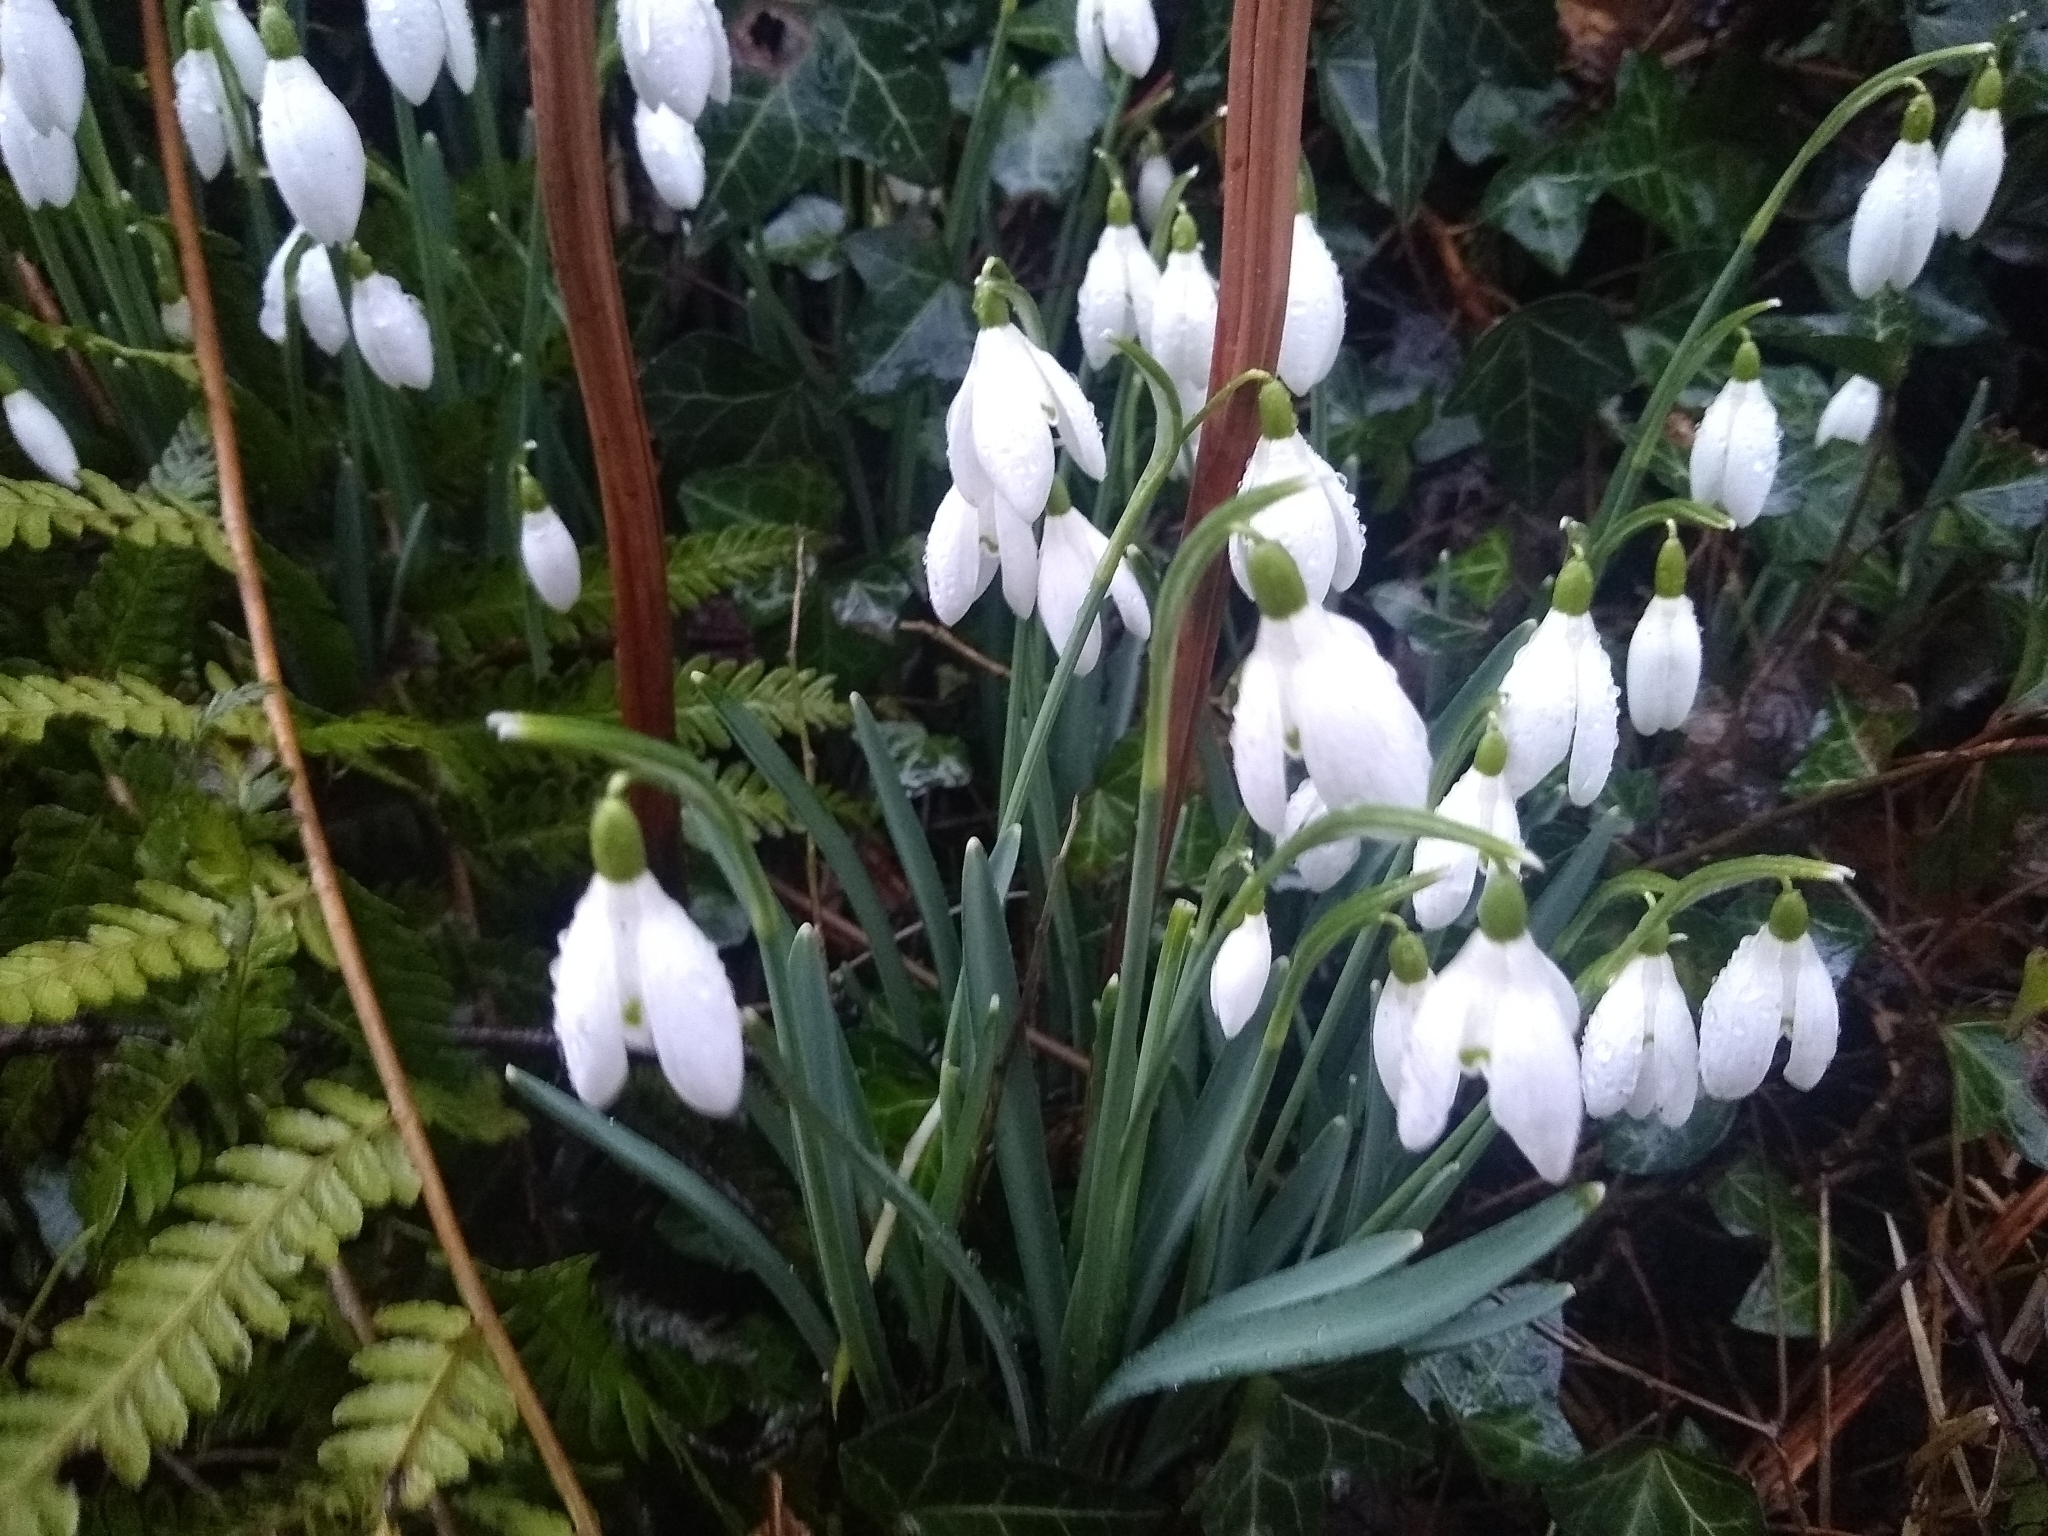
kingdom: Plantae
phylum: Tracheophyta
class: Liliopsida
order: Asparagales
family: Amaryllidaceae
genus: Galanthus
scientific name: Galanthus nivalis
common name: Snowdrop
